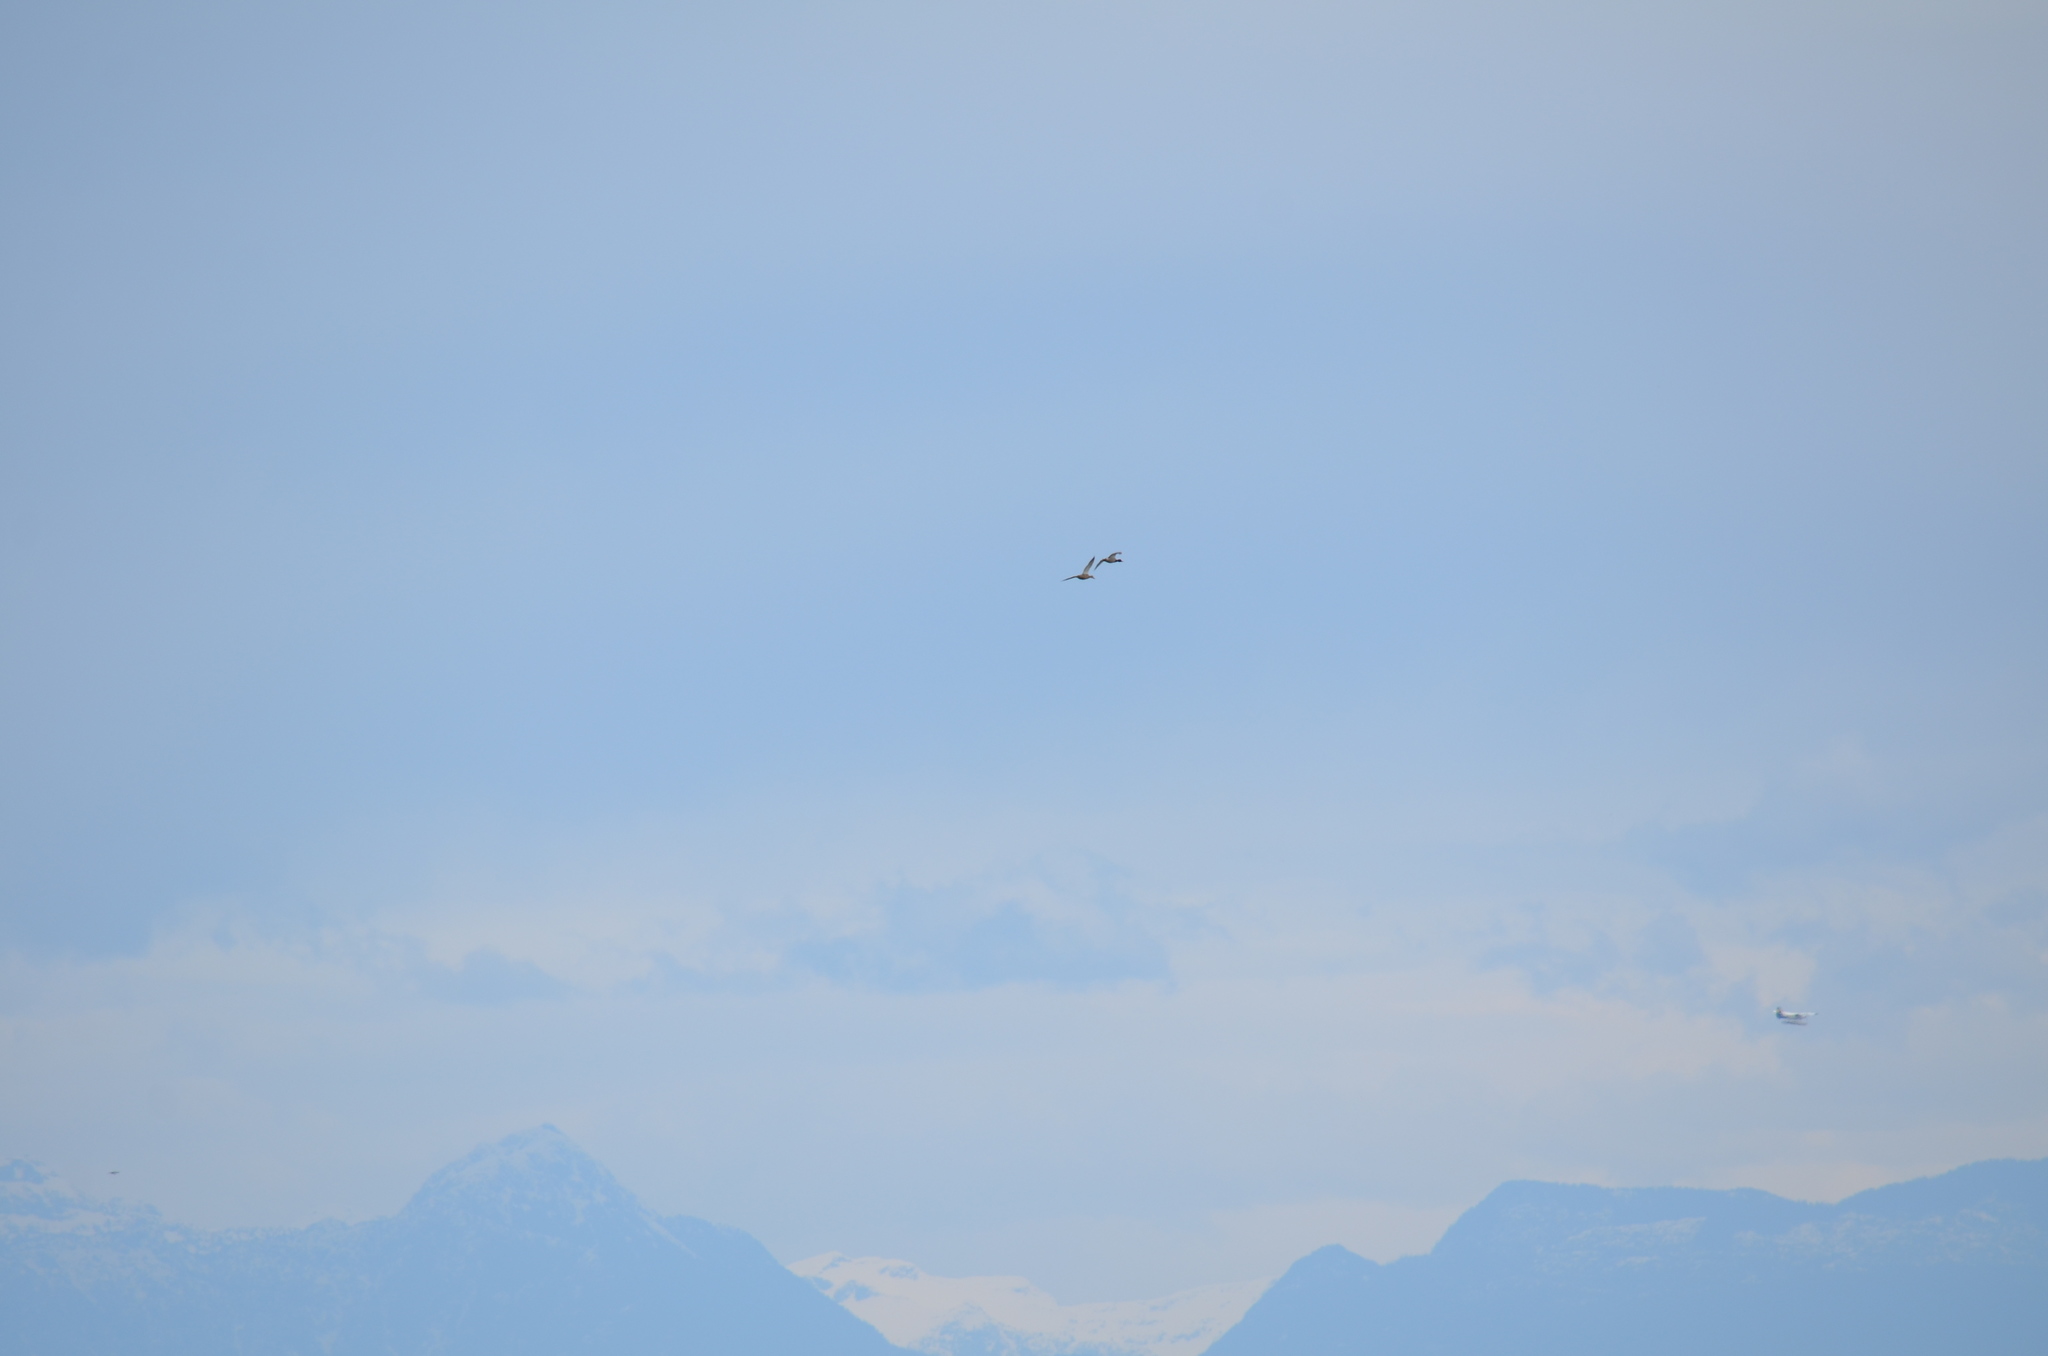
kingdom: Animalia
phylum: Chordata
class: Aves
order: Anseriformes
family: Anatidae
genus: Anas
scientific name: Anas platyrhynchos
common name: Mallard
